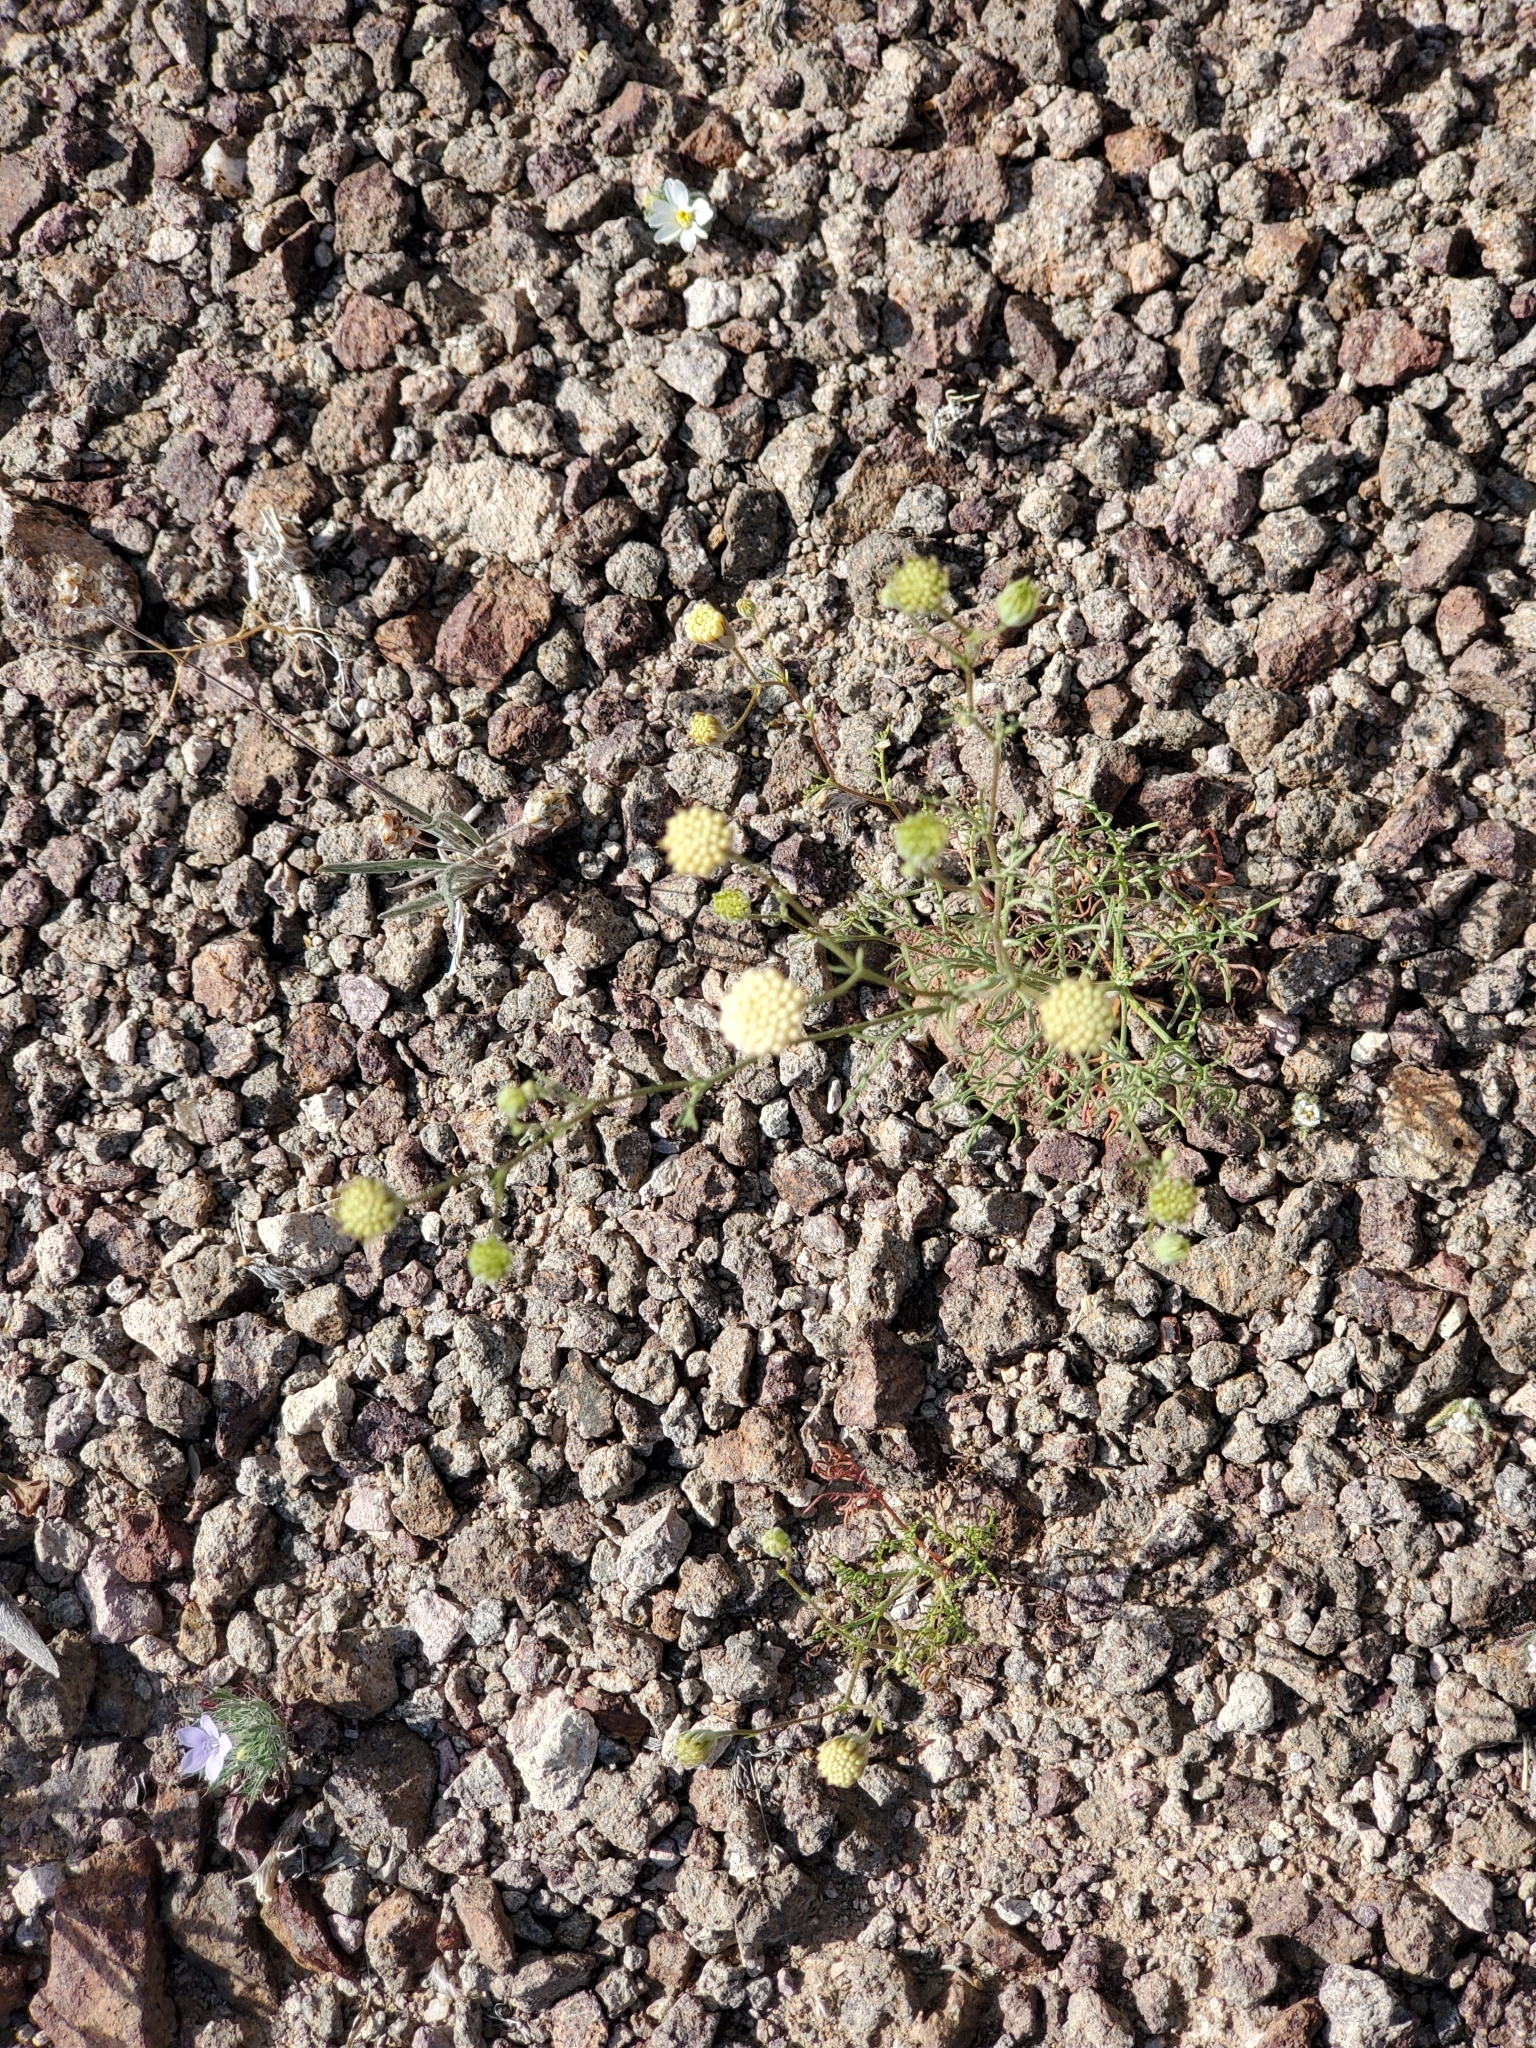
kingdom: Plantae
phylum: Tracheophyta
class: Magnoliopsida
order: Asterales
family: Asteraceae
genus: Chaenactis
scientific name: Chaenactis carphoclinia
